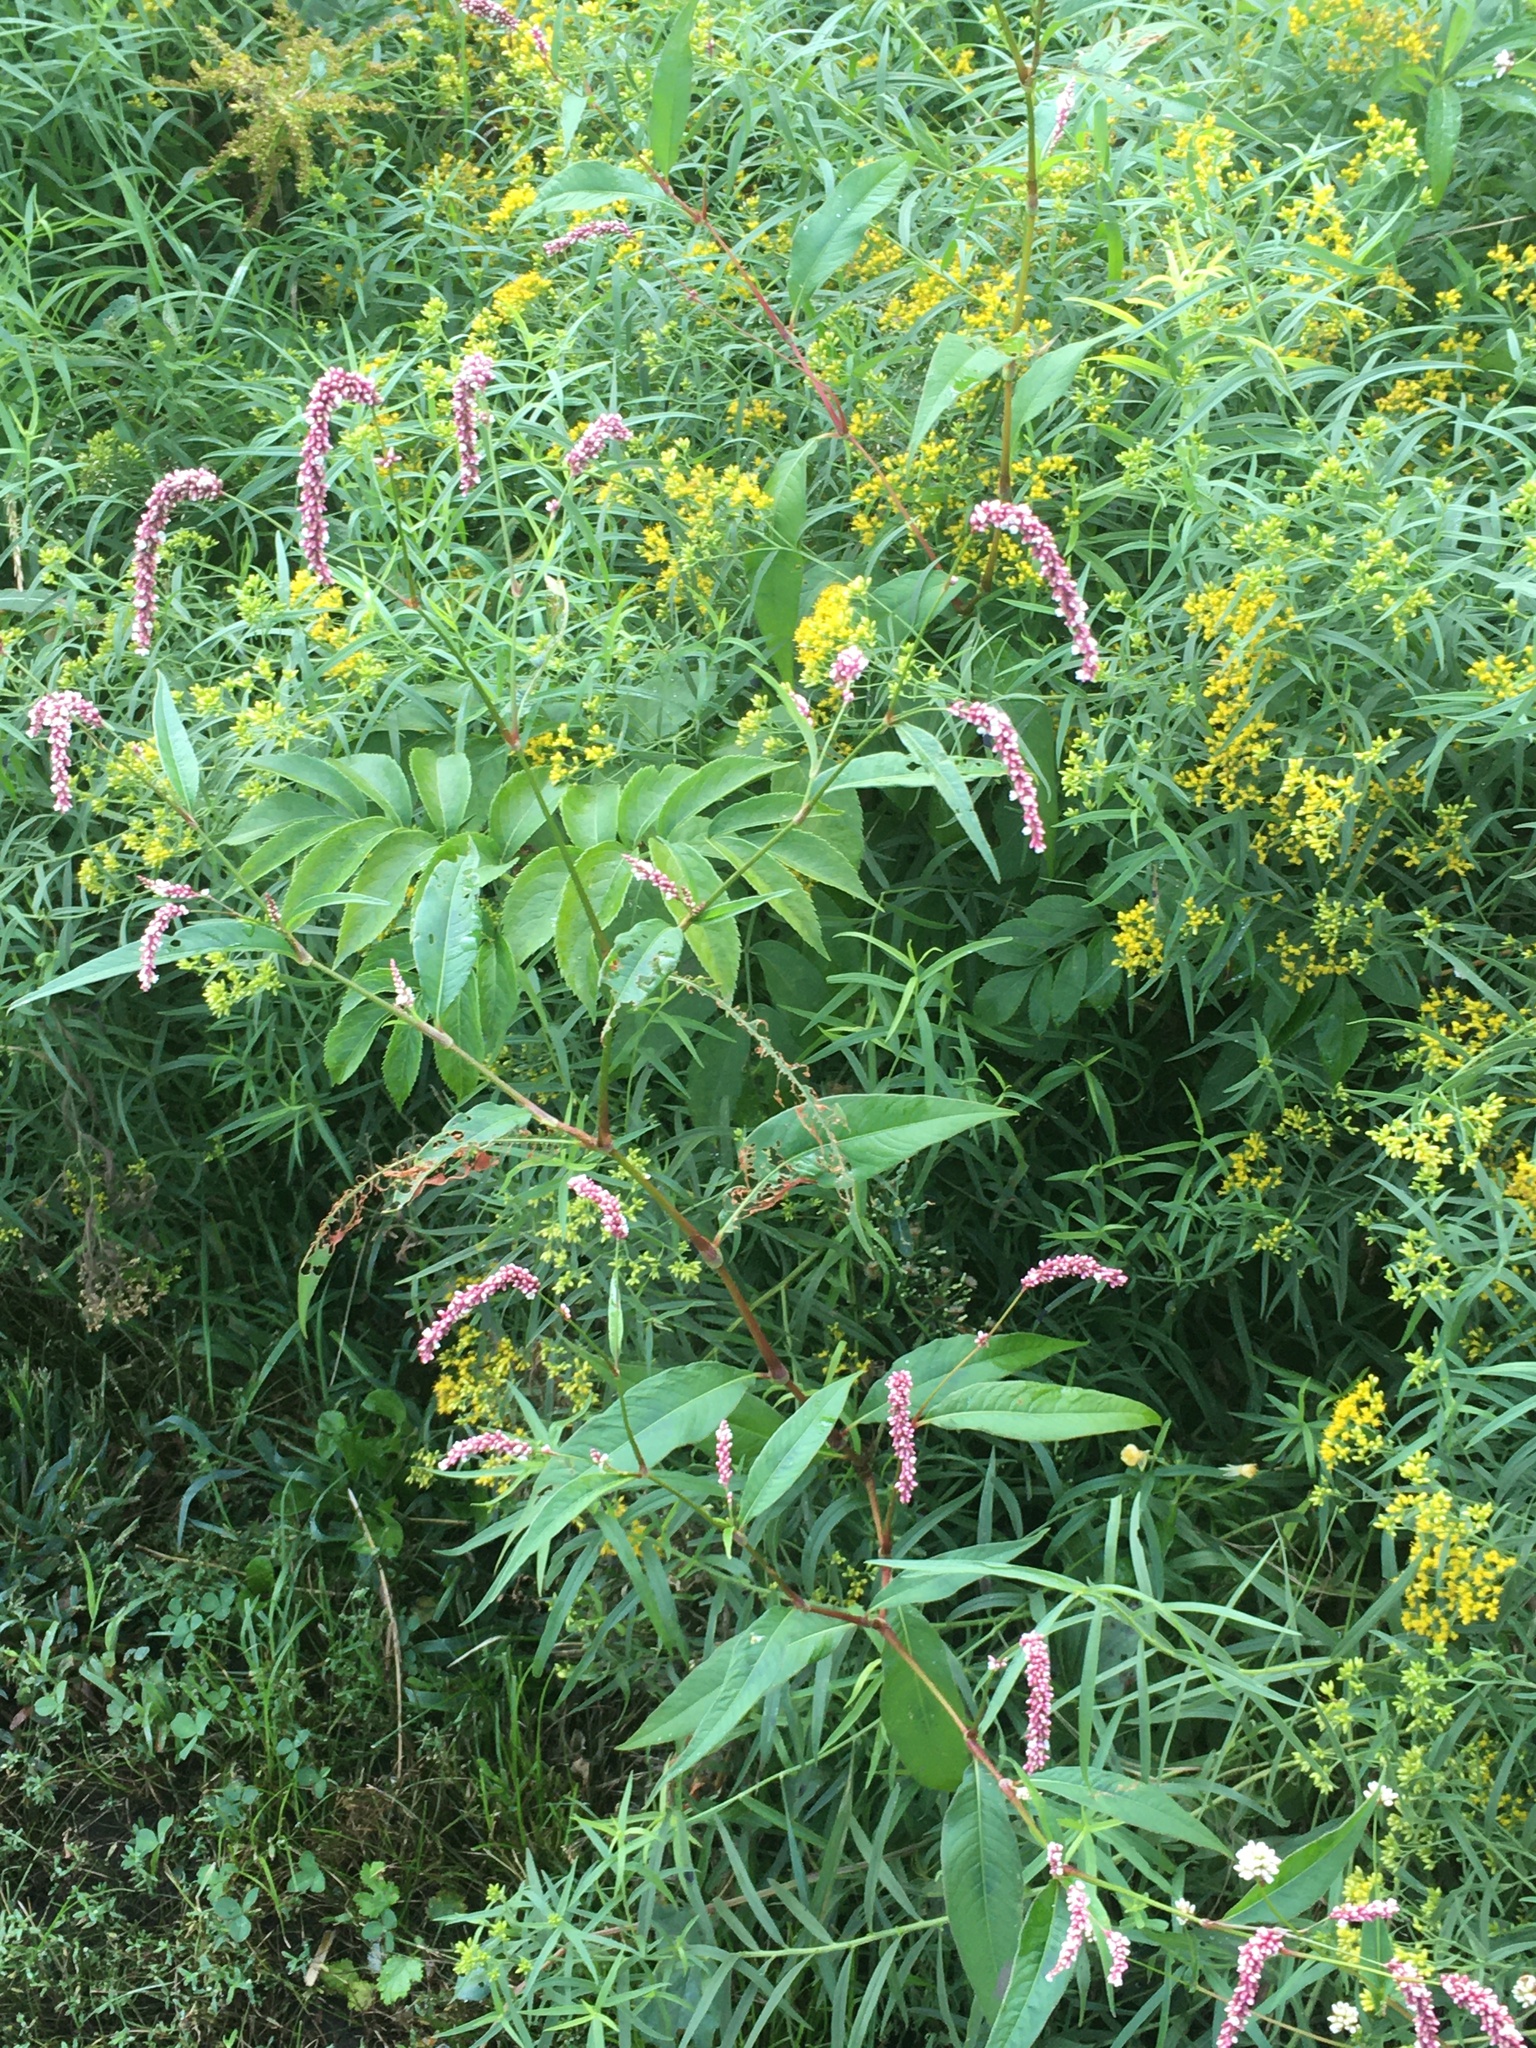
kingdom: Plantae
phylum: Tracheophyta
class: Magnoliopsida
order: Caryophyllales
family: Polygonaceae
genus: Persicaria
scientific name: Persicaria extremiorientalis
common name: Far-eastern smartweed
